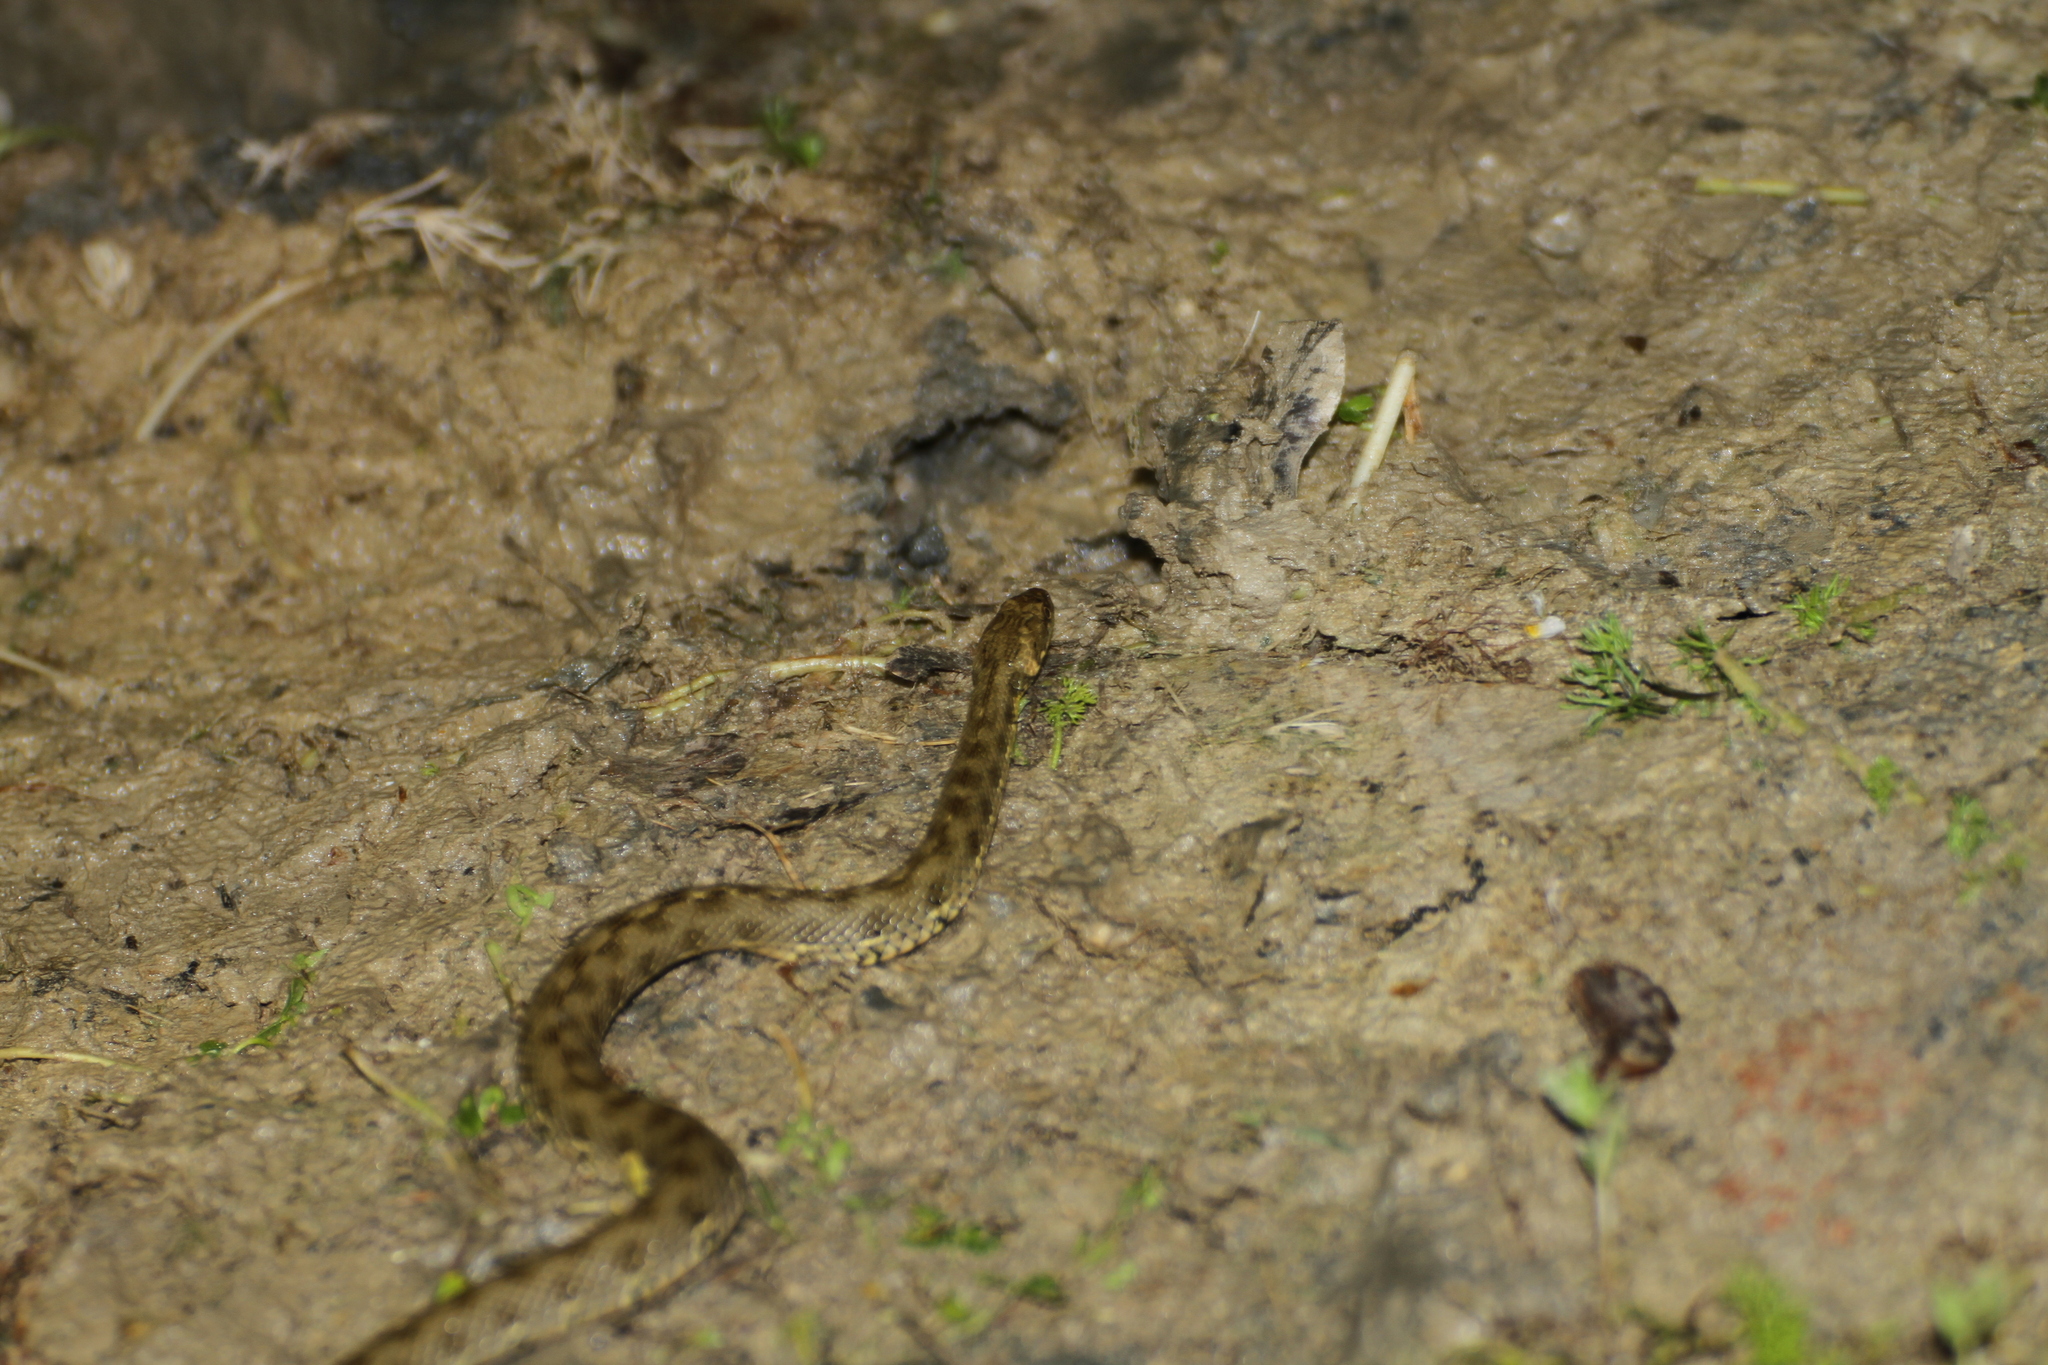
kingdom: Animalia
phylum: Chordata
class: Squamata
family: Colubridae
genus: Natrix
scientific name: Natrix maura
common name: Viperine water snake
